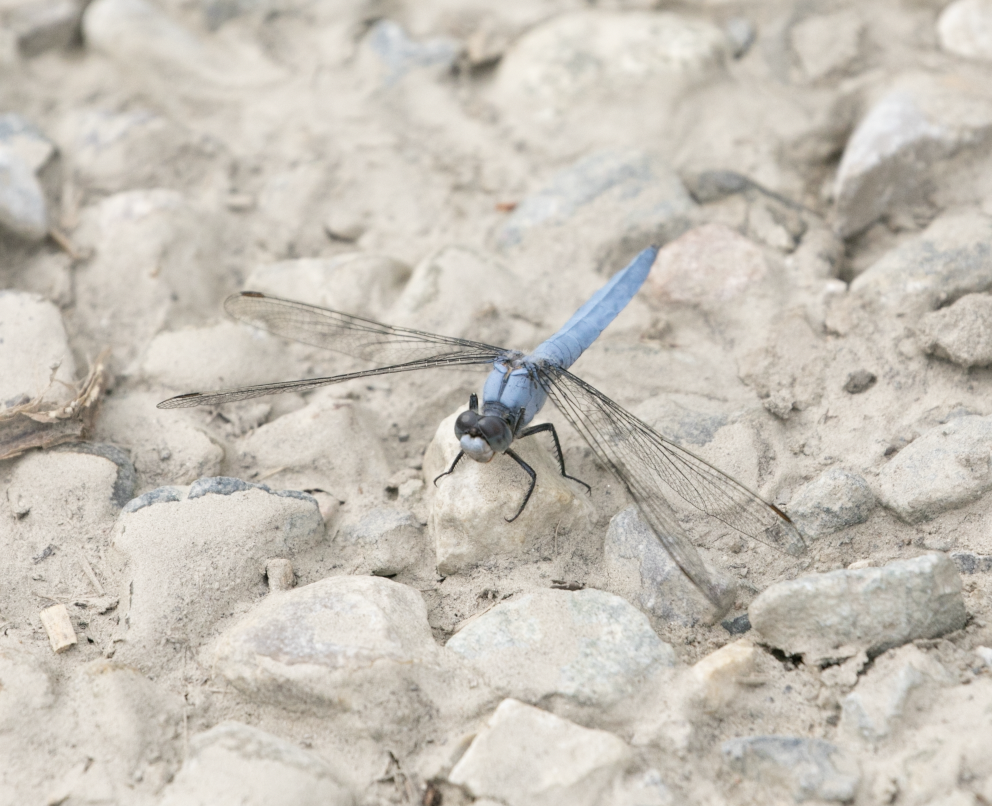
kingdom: Animalia
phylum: Arthropoda
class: Insecta
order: Odonata
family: Libellulidae
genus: Orthetrum
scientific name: Orthetrum brunneum
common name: Southern skimmer
